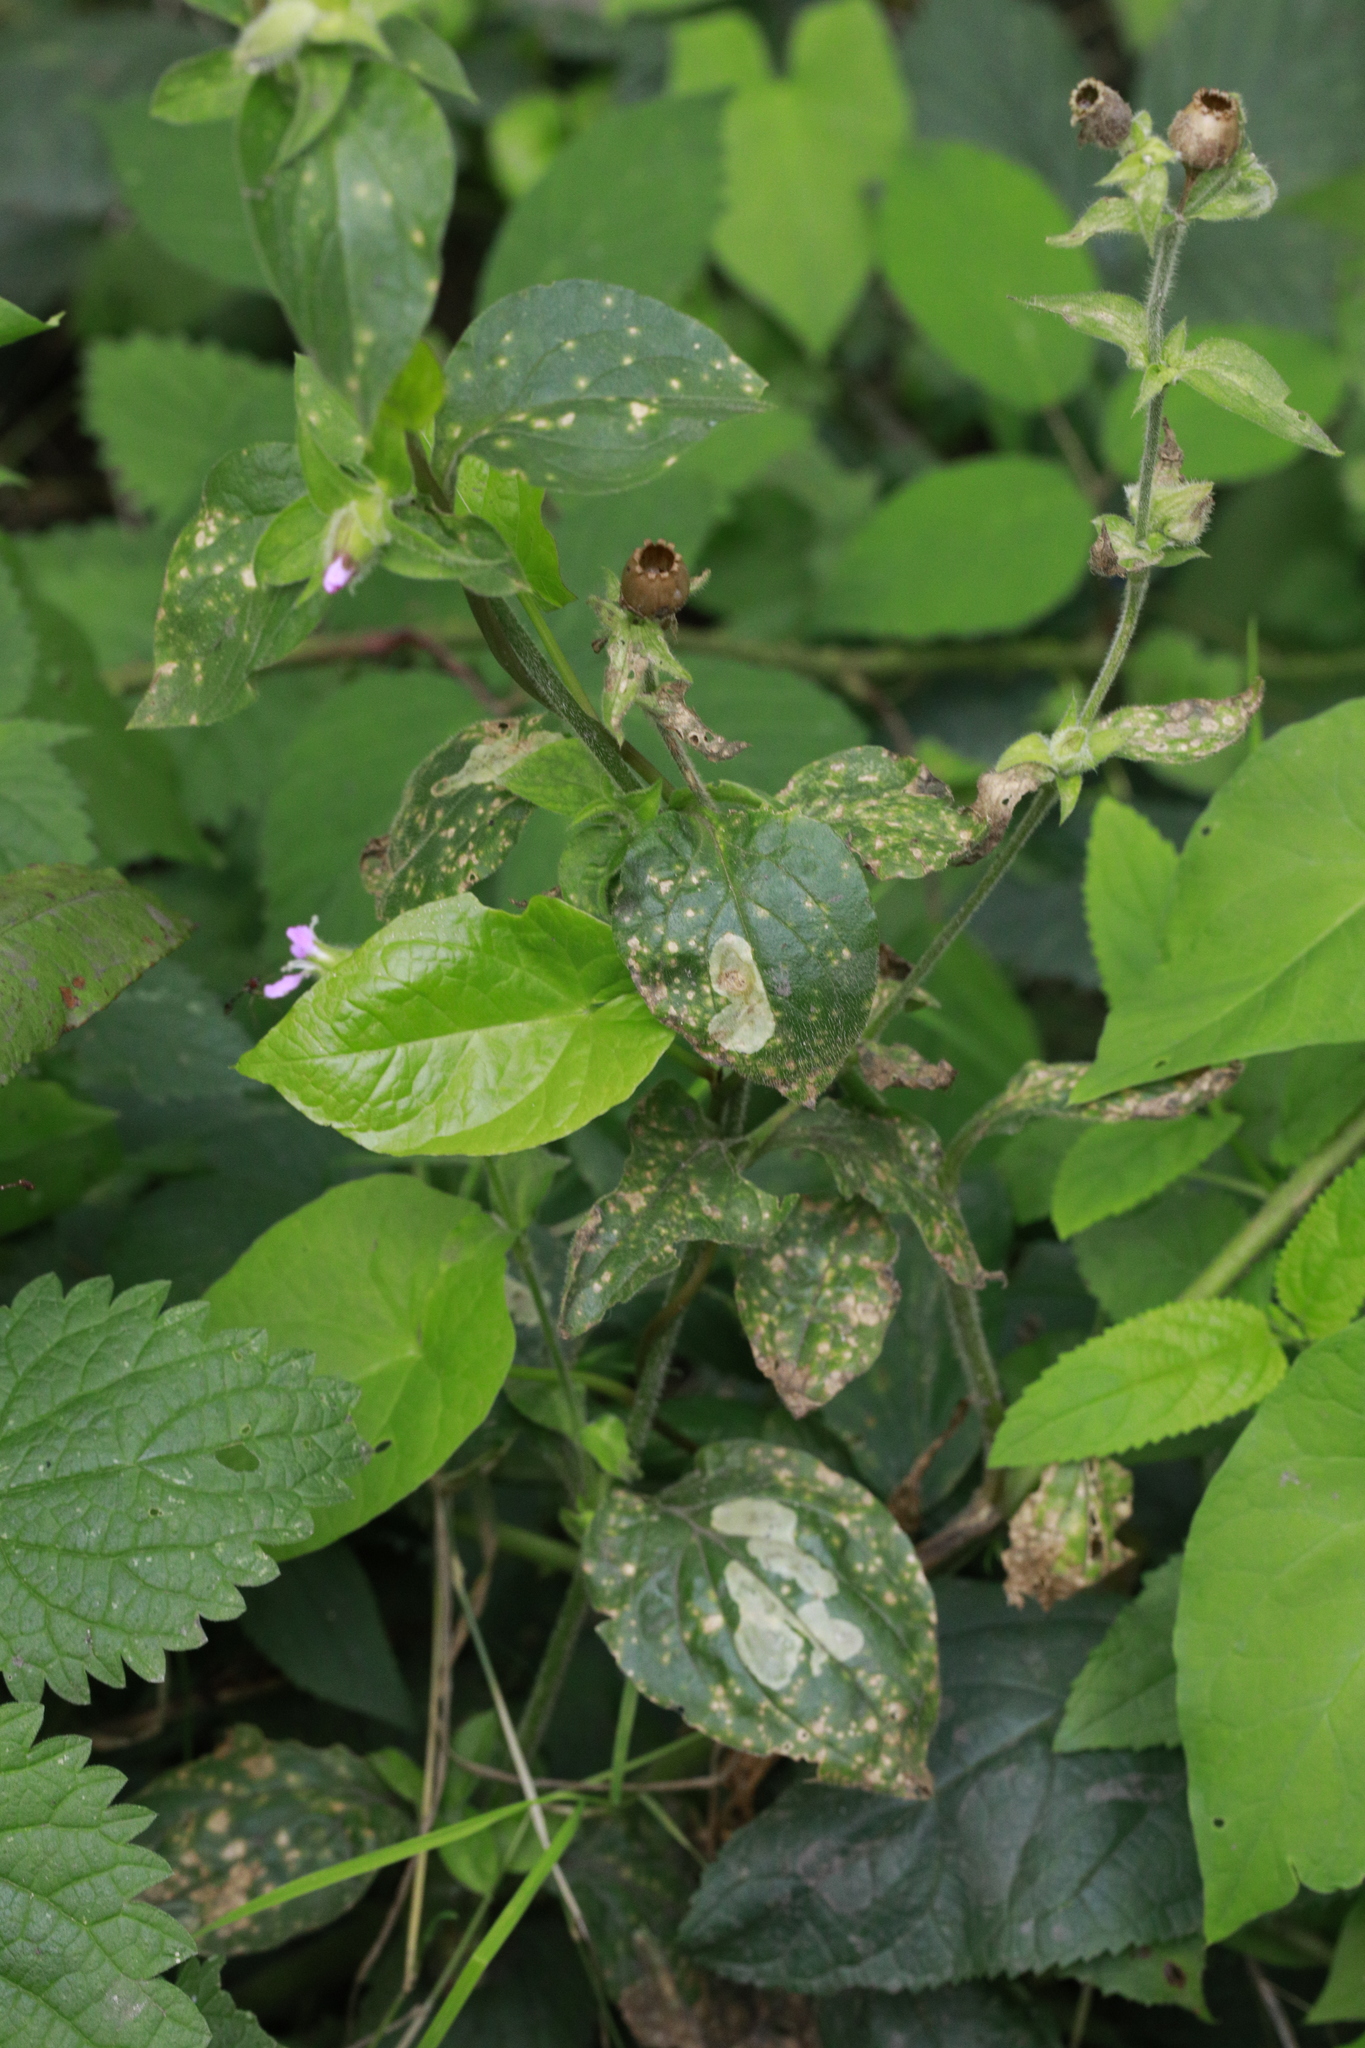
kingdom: Plantae
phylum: Tracheophyta
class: Magnoliopsida
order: Caryophyllales
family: Caryophyllaceae
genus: Silene
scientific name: Silene dioica
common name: Red campion
